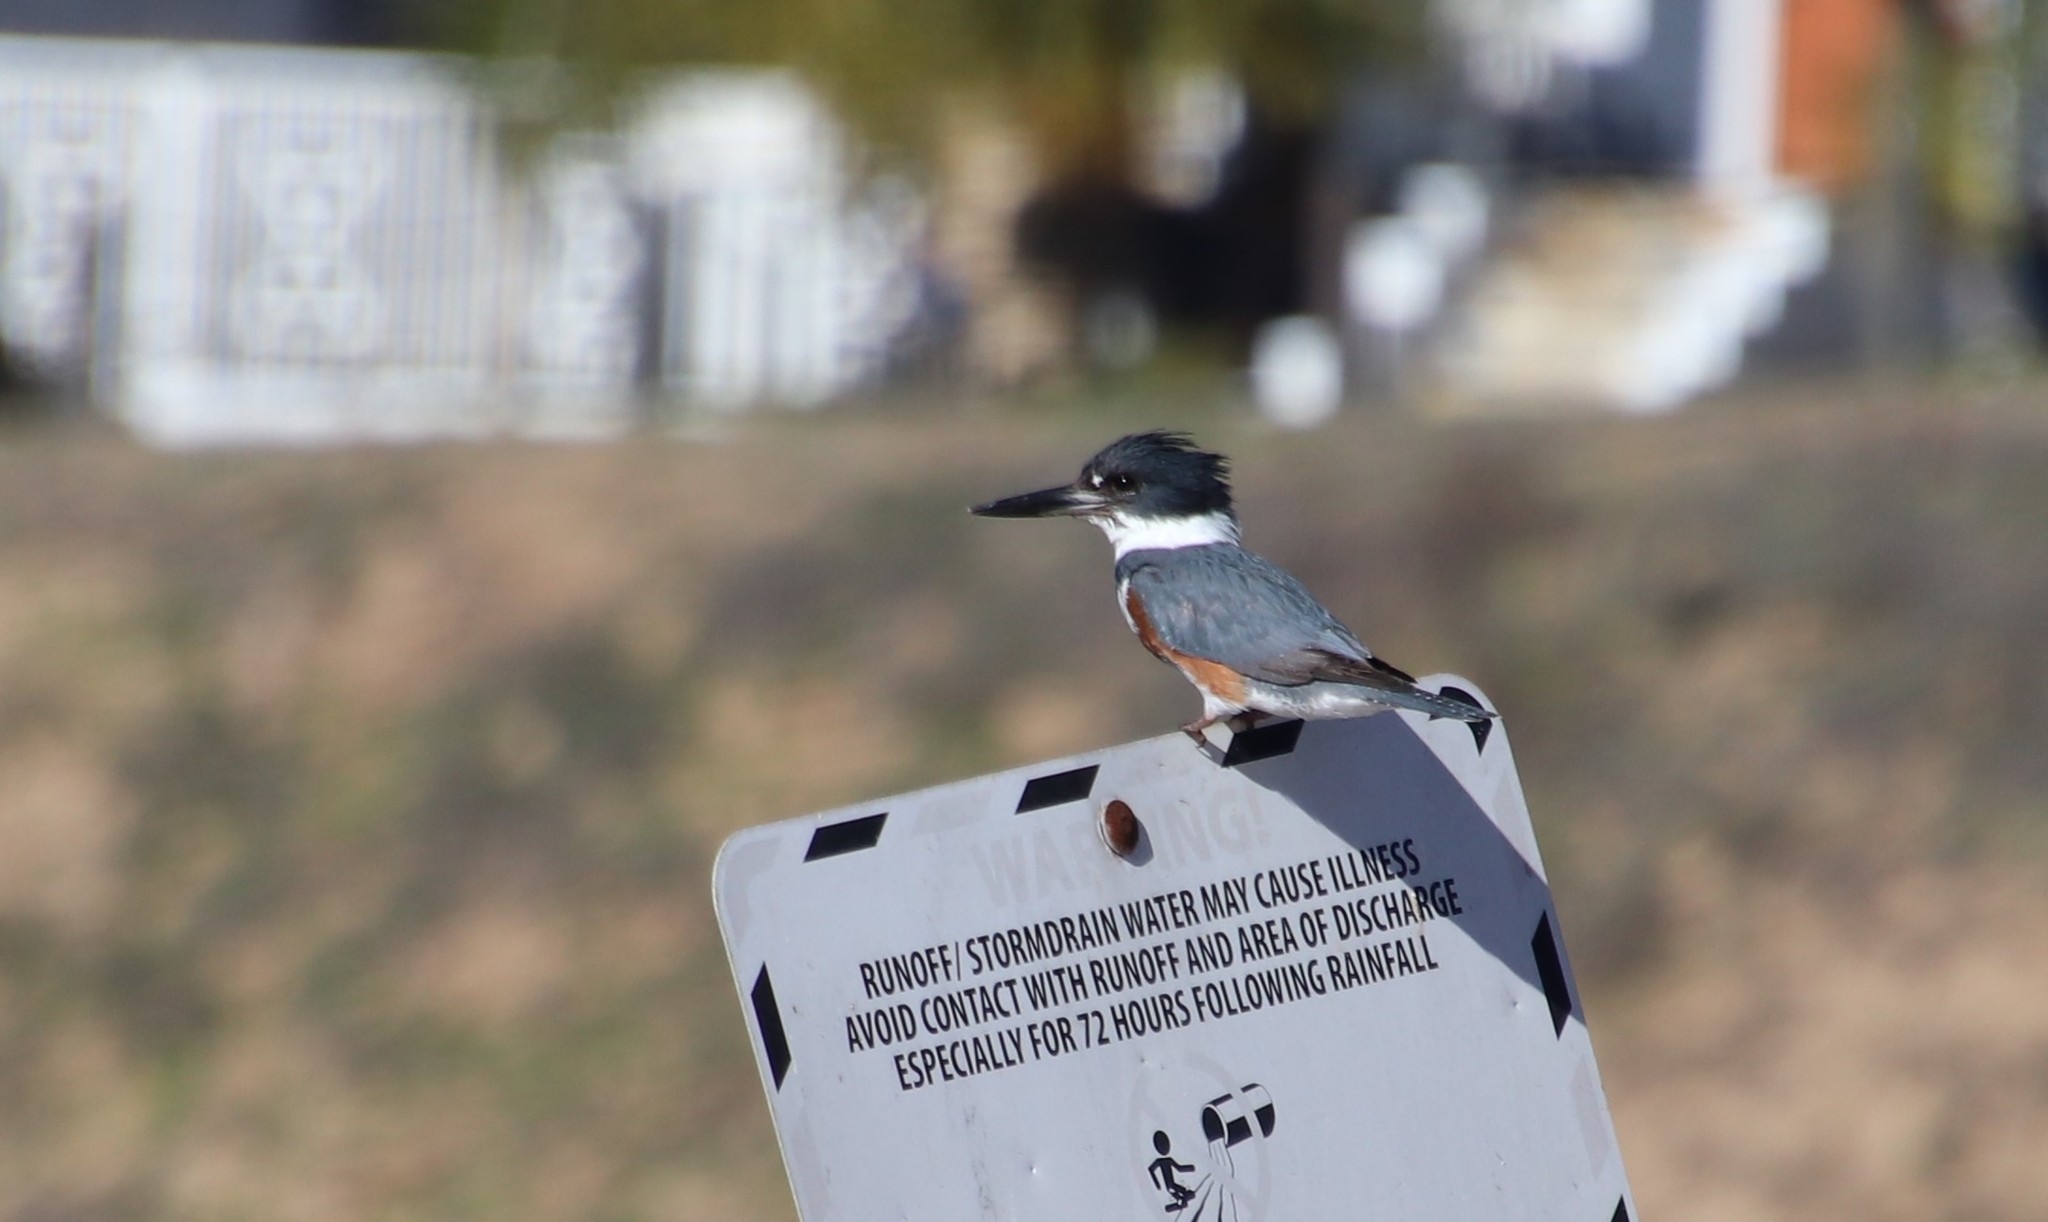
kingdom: Animalia
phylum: Chordata
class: Aves
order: Coraciiformes
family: Alcedinidae
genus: Megaceryle
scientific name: Megaceryle alcyon
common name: Belted kingfisher
